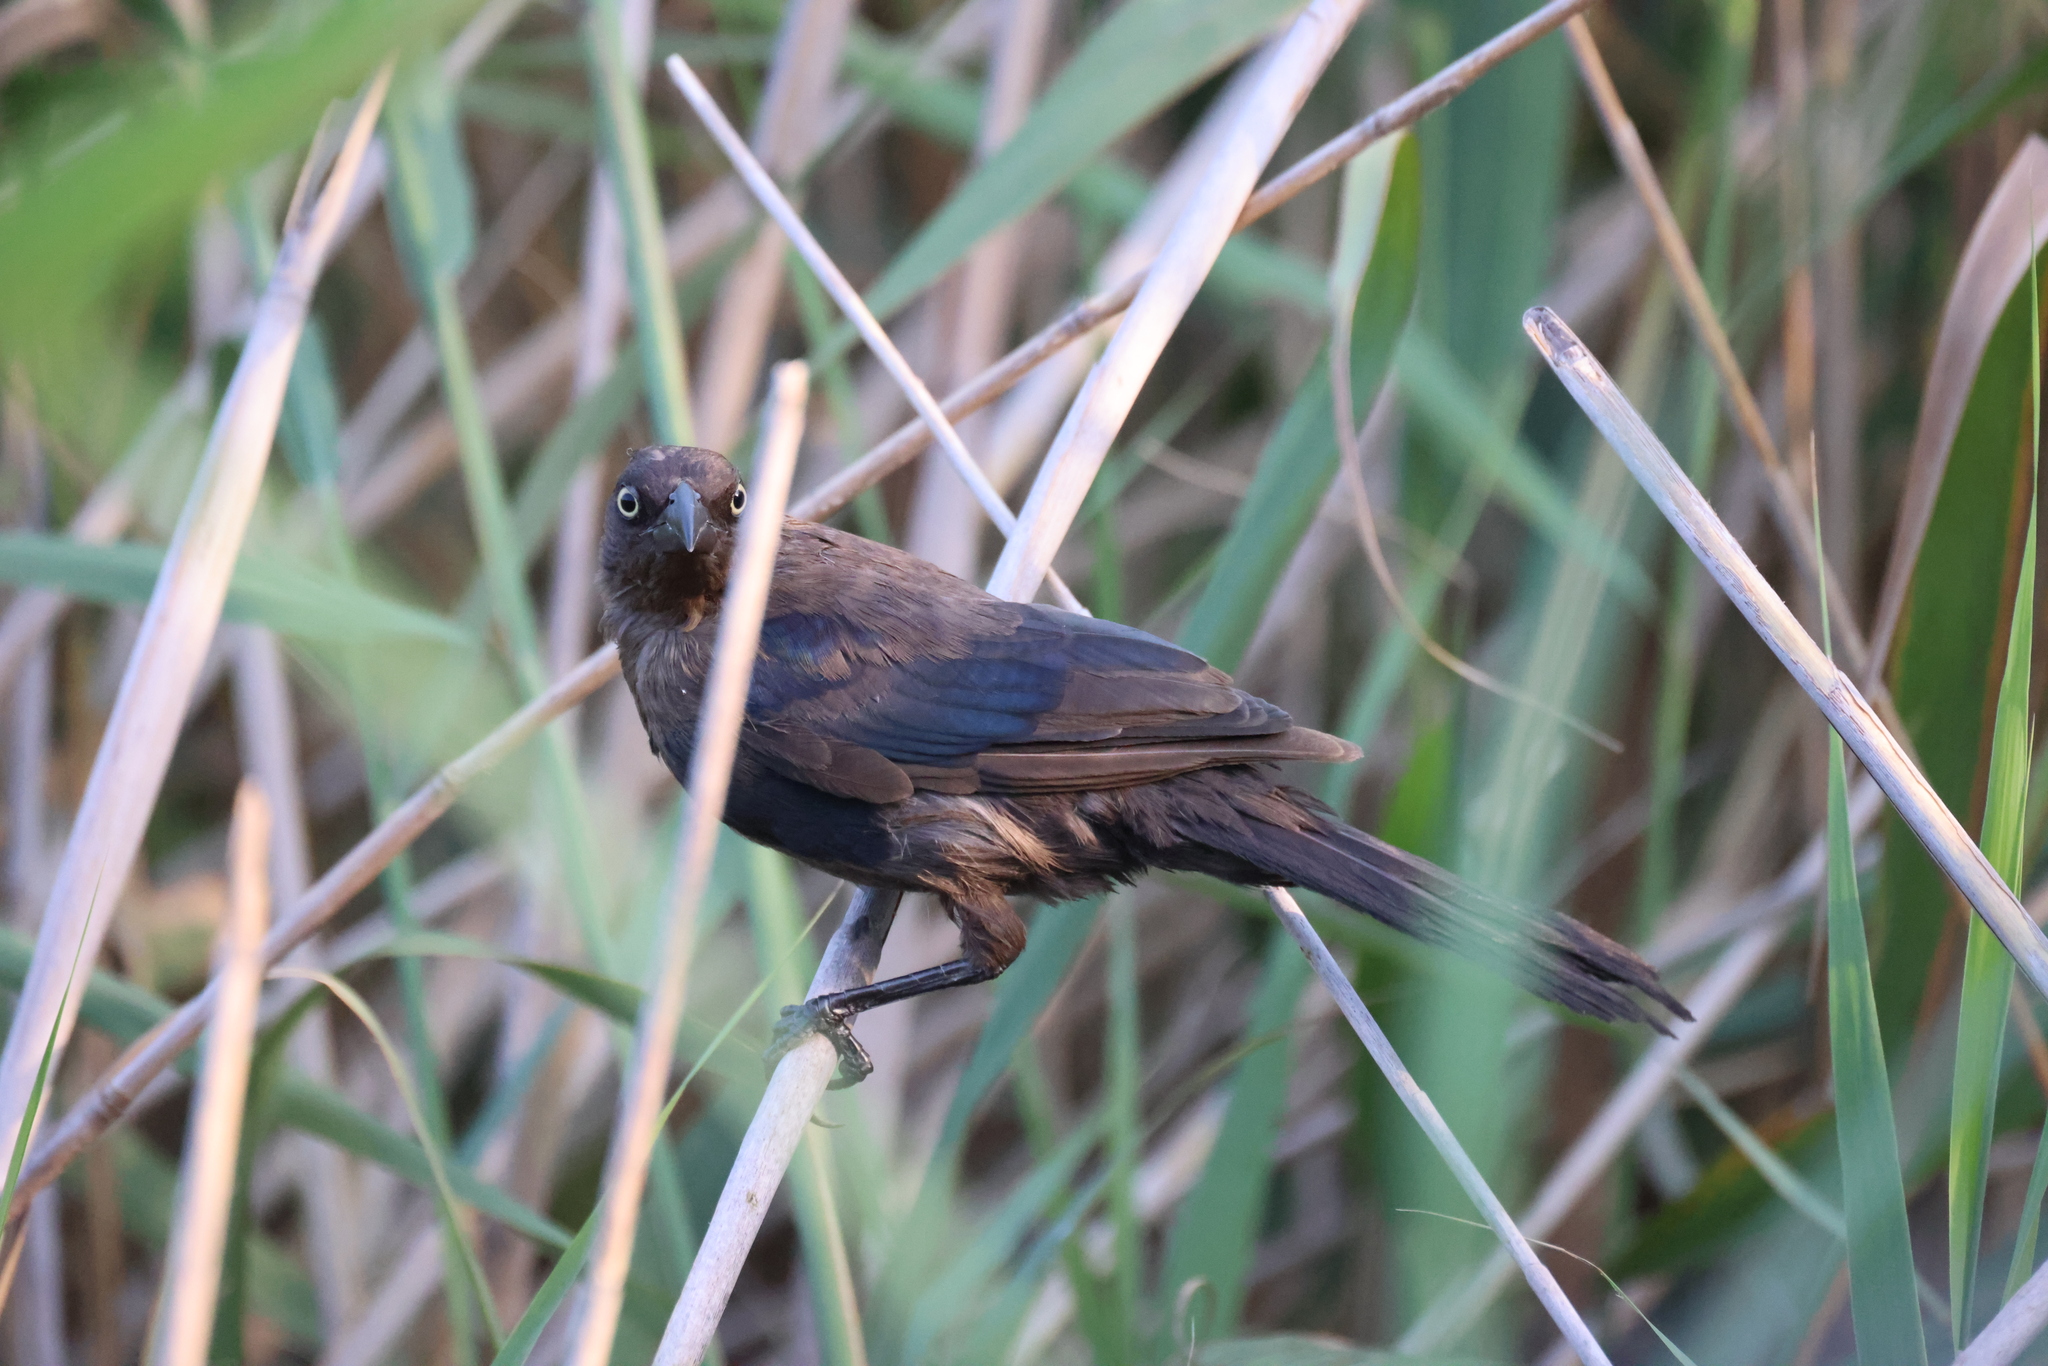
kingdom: Animalia
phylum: Chordata
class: Aves
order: Passeriformes
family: Icteridae
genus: Quiscalus
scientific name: Quiscalus quiscula
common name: Common grackle
